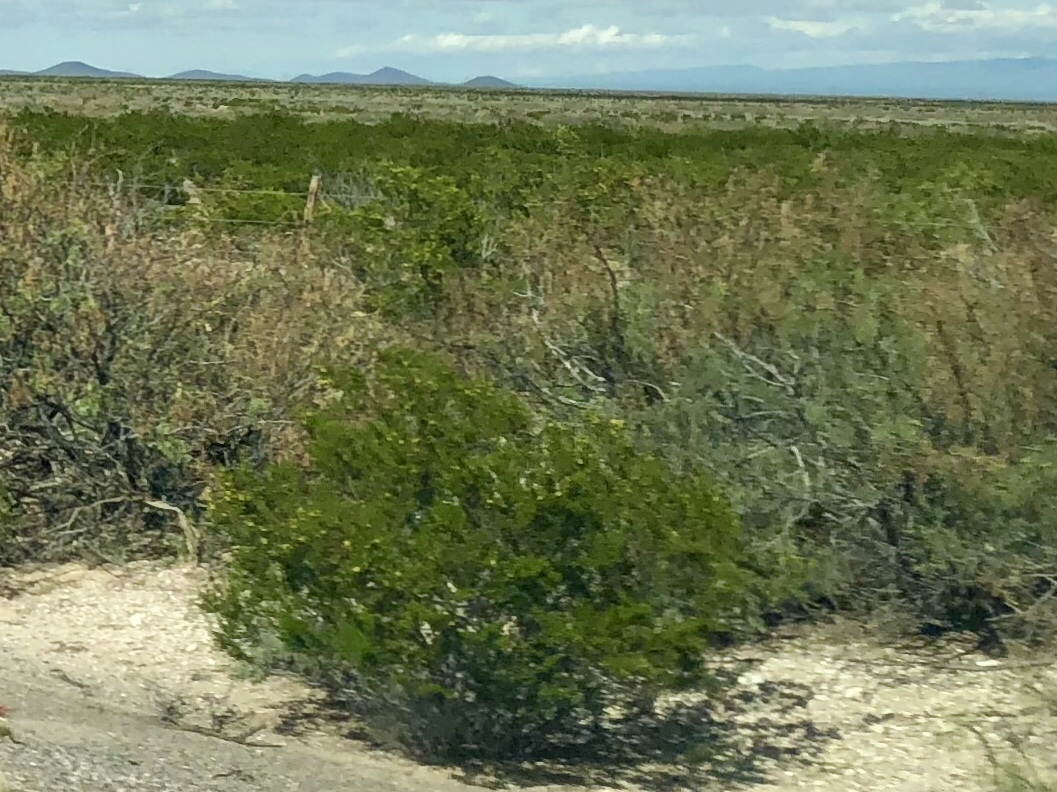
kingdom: Plantae
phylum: Tracheophyta
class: Magnoliopsida
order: Zygophyllales
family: Zygophyllaceae
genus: Larrea
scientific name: Larrea tridentata
